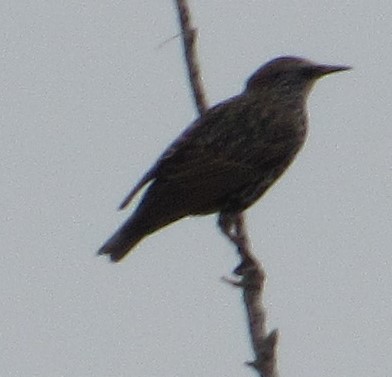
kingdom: Animalia
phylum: Chordata
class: Aves
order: Passeriformes
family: Sturnidae
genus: Sturnus
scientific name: Sturnus vulgaris
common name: Common starling
